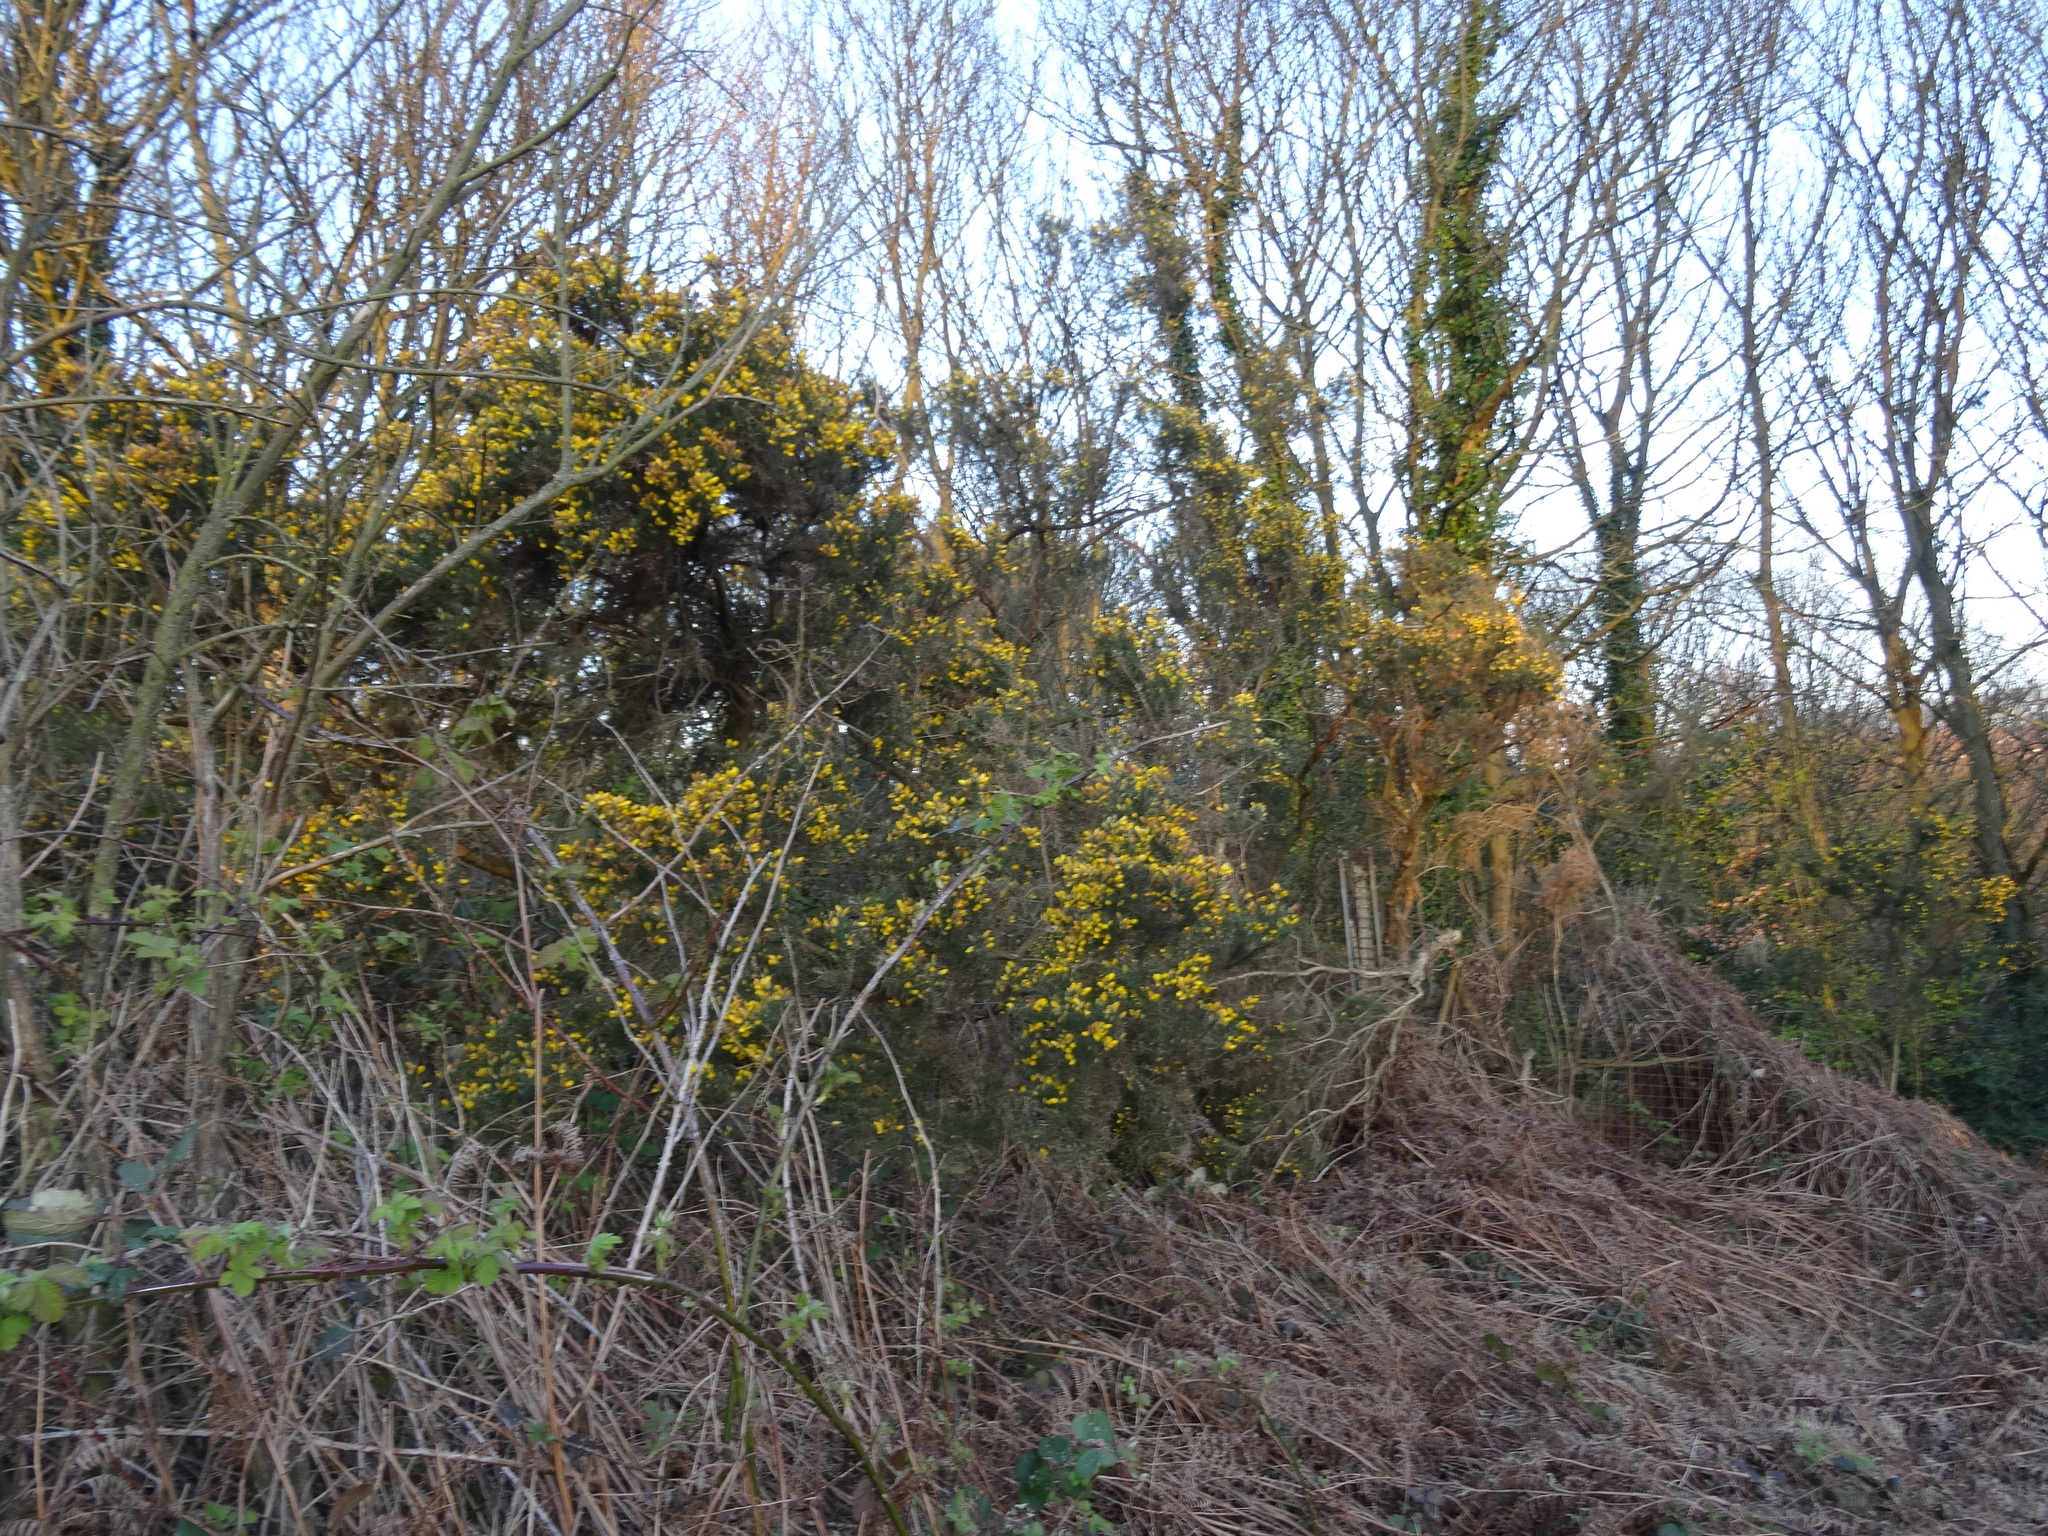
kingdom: Plantae
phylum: Tracheophyta
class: Magnoliopsida
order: Fabales
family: Fabaceae
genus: Ulex
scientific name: Ulex europaeus
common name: Common gorse
